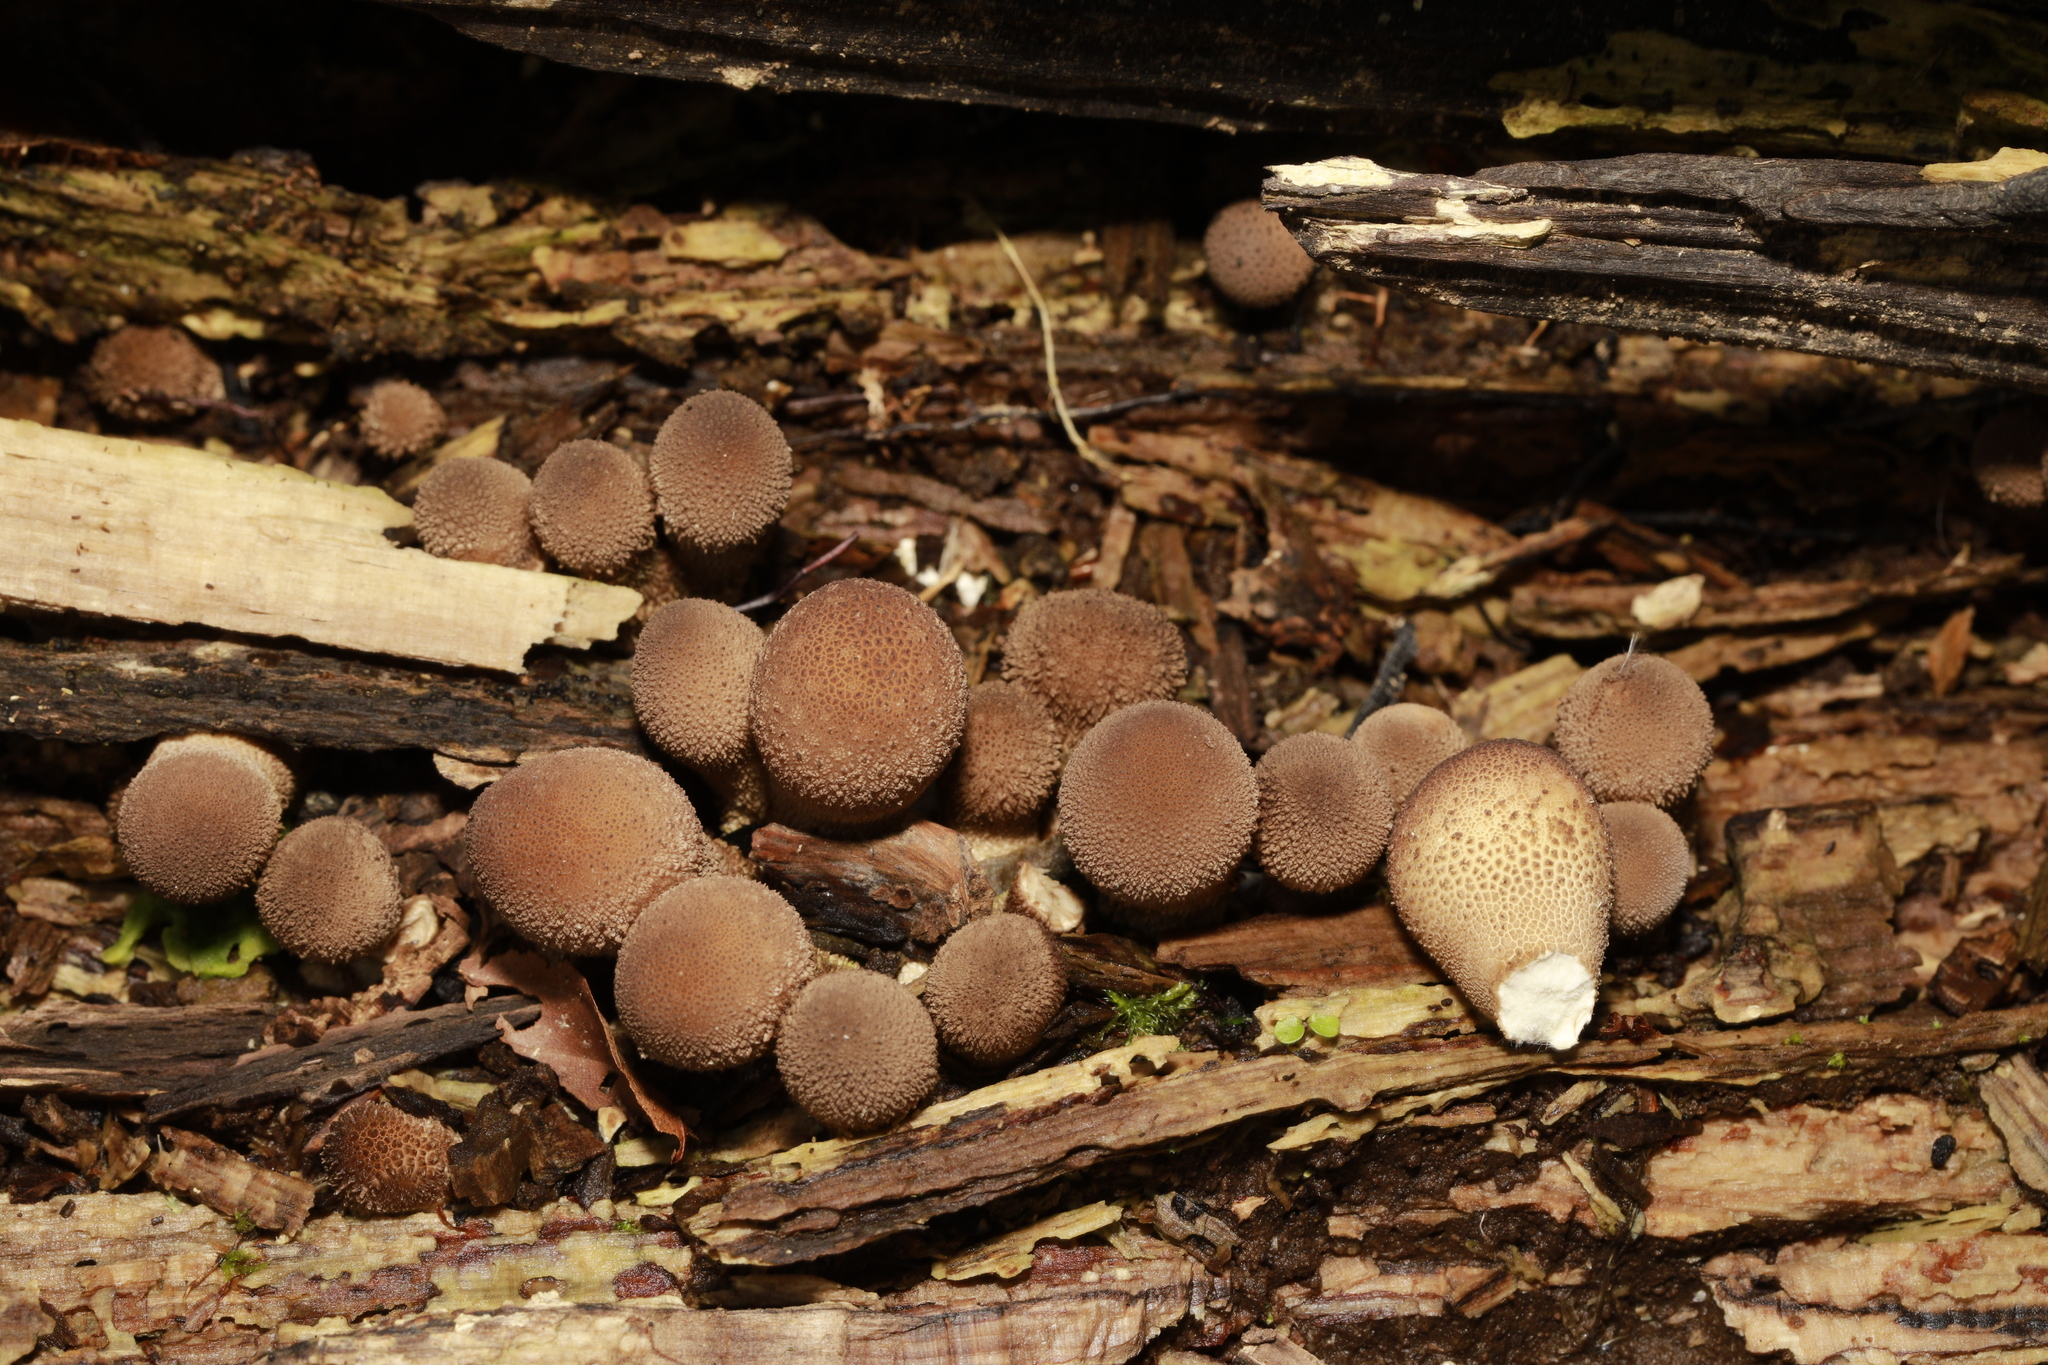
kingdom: Fungi
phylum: Basidiomycota
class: Agaricomycetes
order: Agaricales
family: Lycoperdaceae
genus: Apioperdon
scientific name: Apioperdon pyriforme
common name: Pear-shaped puffball
